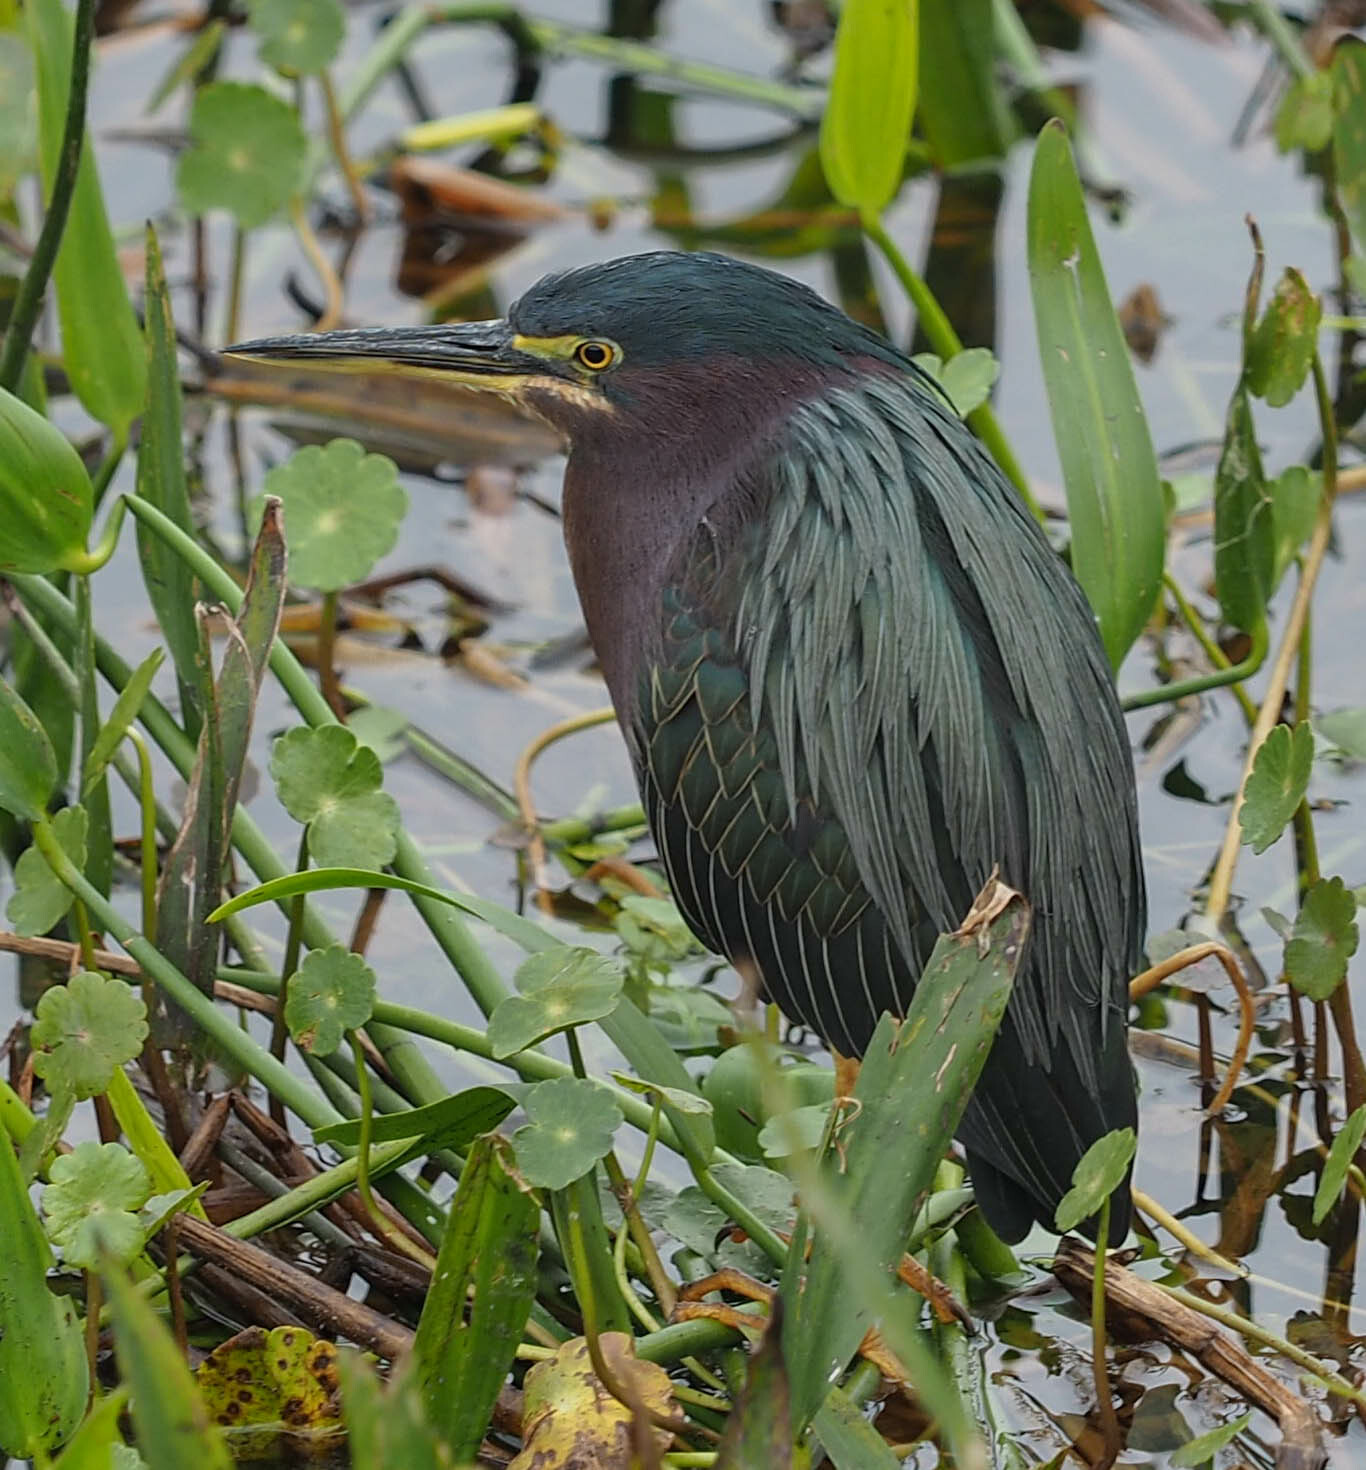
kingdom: Animalia
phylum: Chordata
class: Aves
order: Pelecaniformes
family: Ardeidae
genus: Butorides
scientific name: Butorides virescens
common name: Green heron
